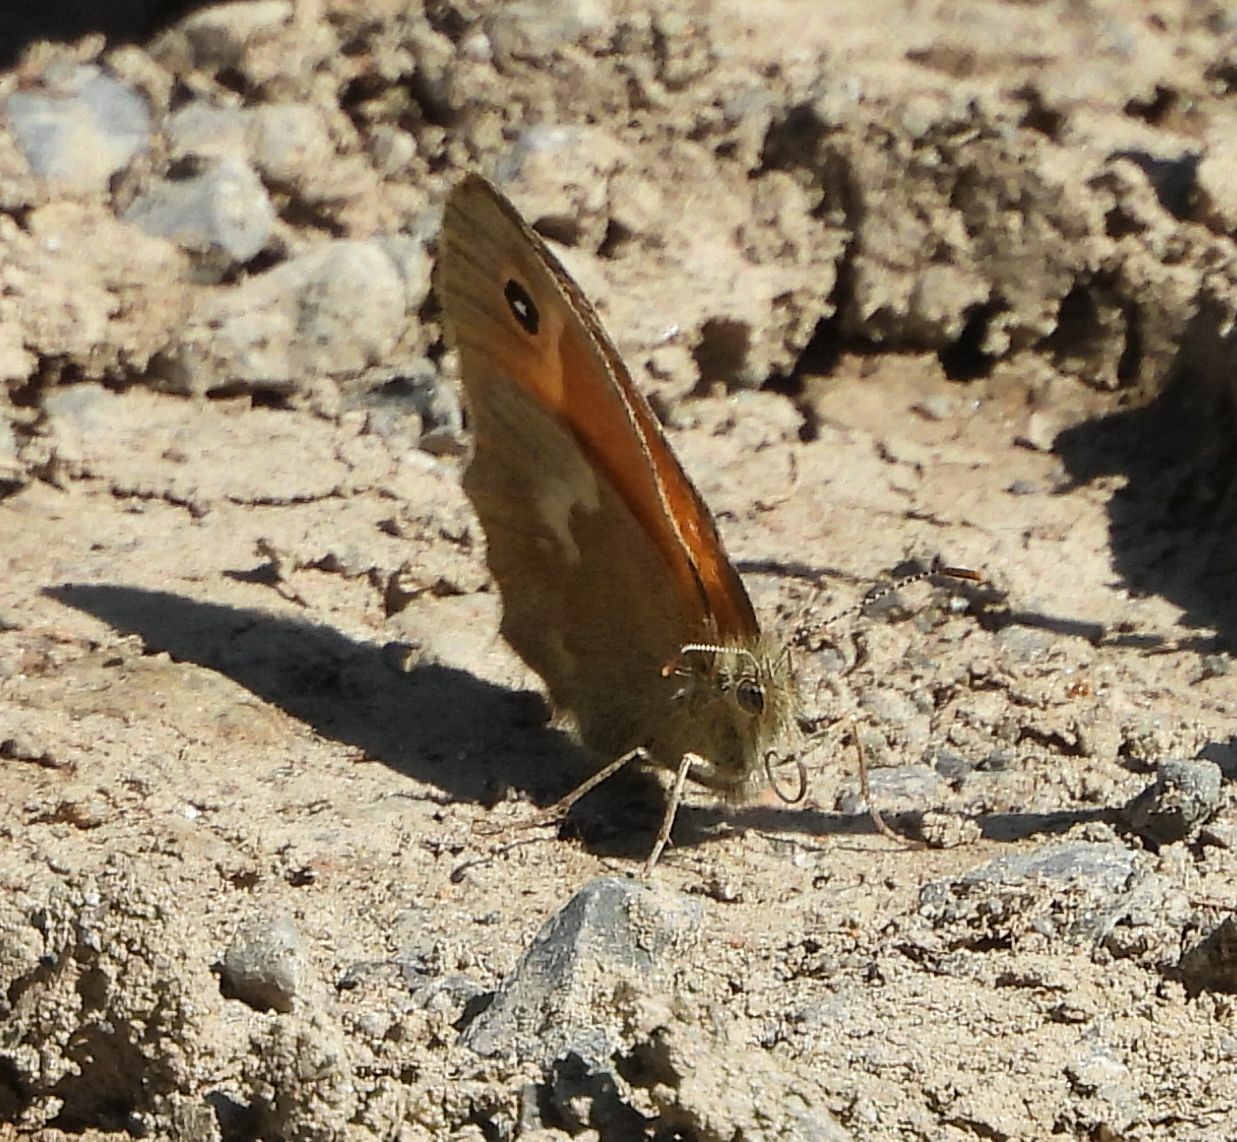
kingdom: Animalia
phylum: Arthropoda
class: Insecta
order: Lepidoptera
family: Nymphalidae
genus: Coenonympha
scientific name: Coenonympha california
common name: Common ringlet
